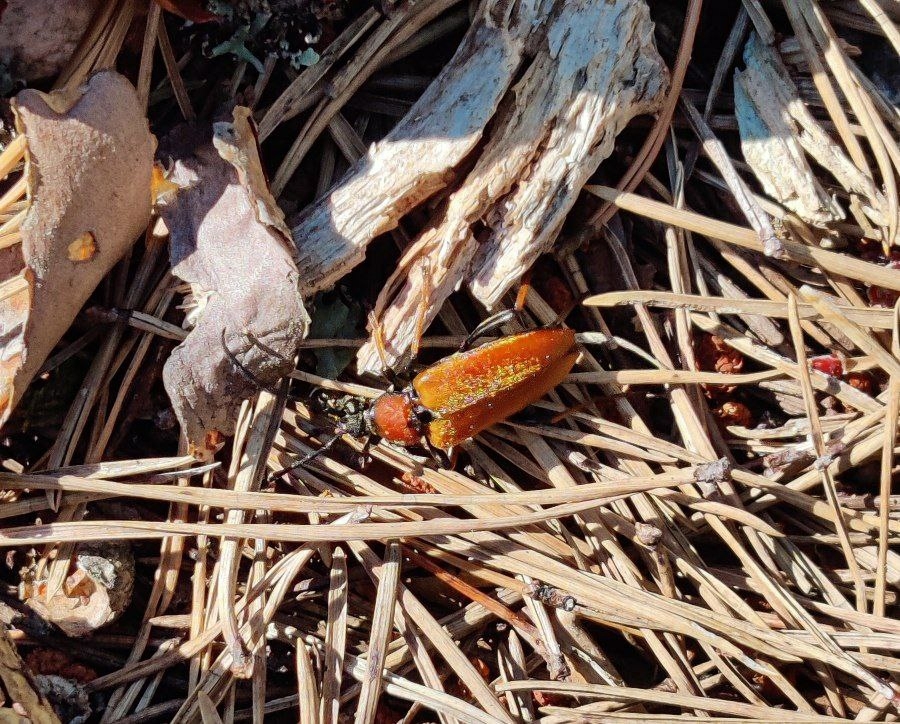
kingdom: Animalia
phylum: Arthropoda
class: Insecta
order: Coleoptera
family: Cerambycidae
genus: Stictoleptura
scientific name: Stictoleptura rubra
